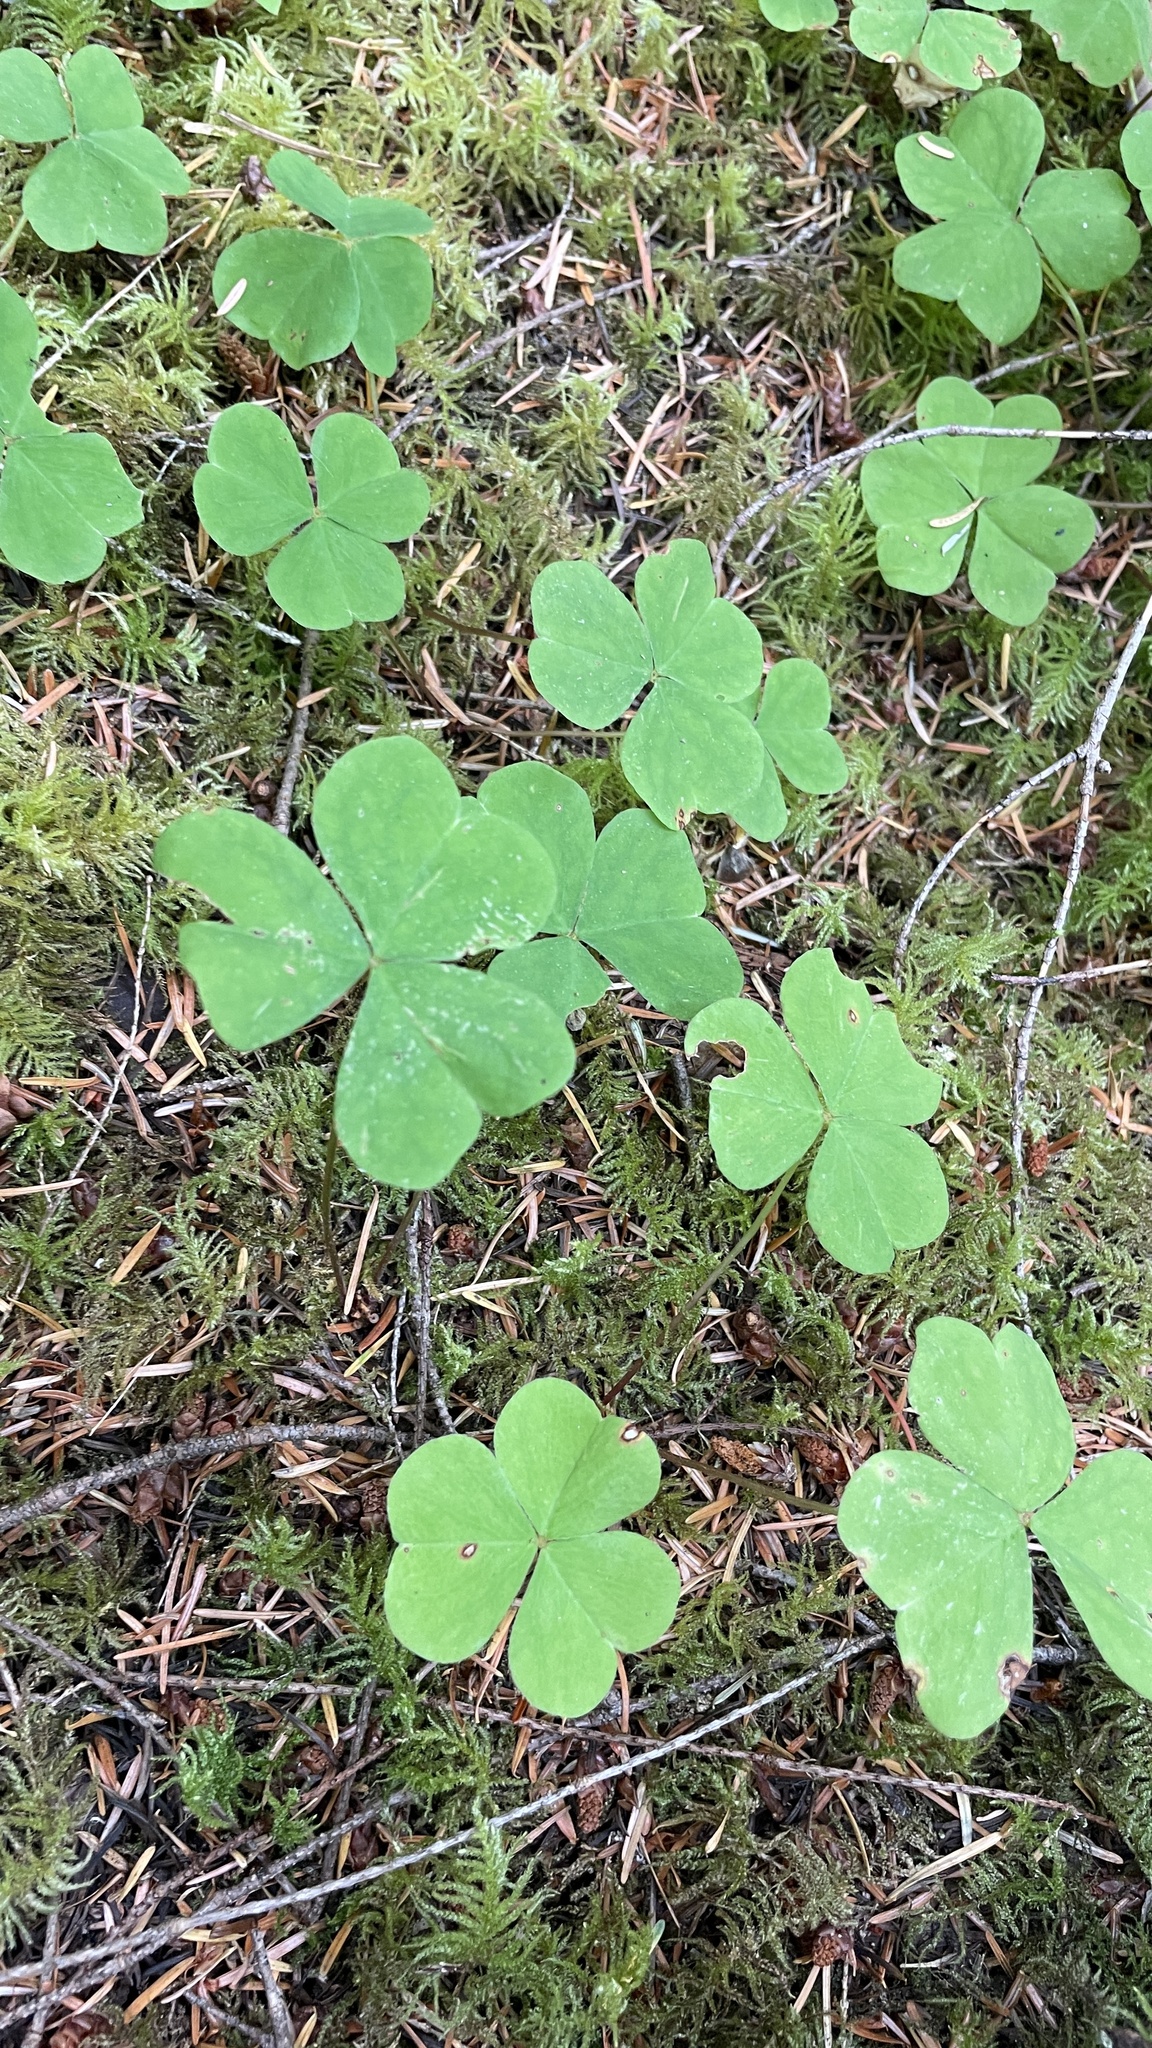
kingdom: Plantae
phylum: Tracheophyta
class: Magnoliopsida
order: Oxalidales
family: Oxalidaceae
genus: Oxalis
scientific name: Oxalis oregana
